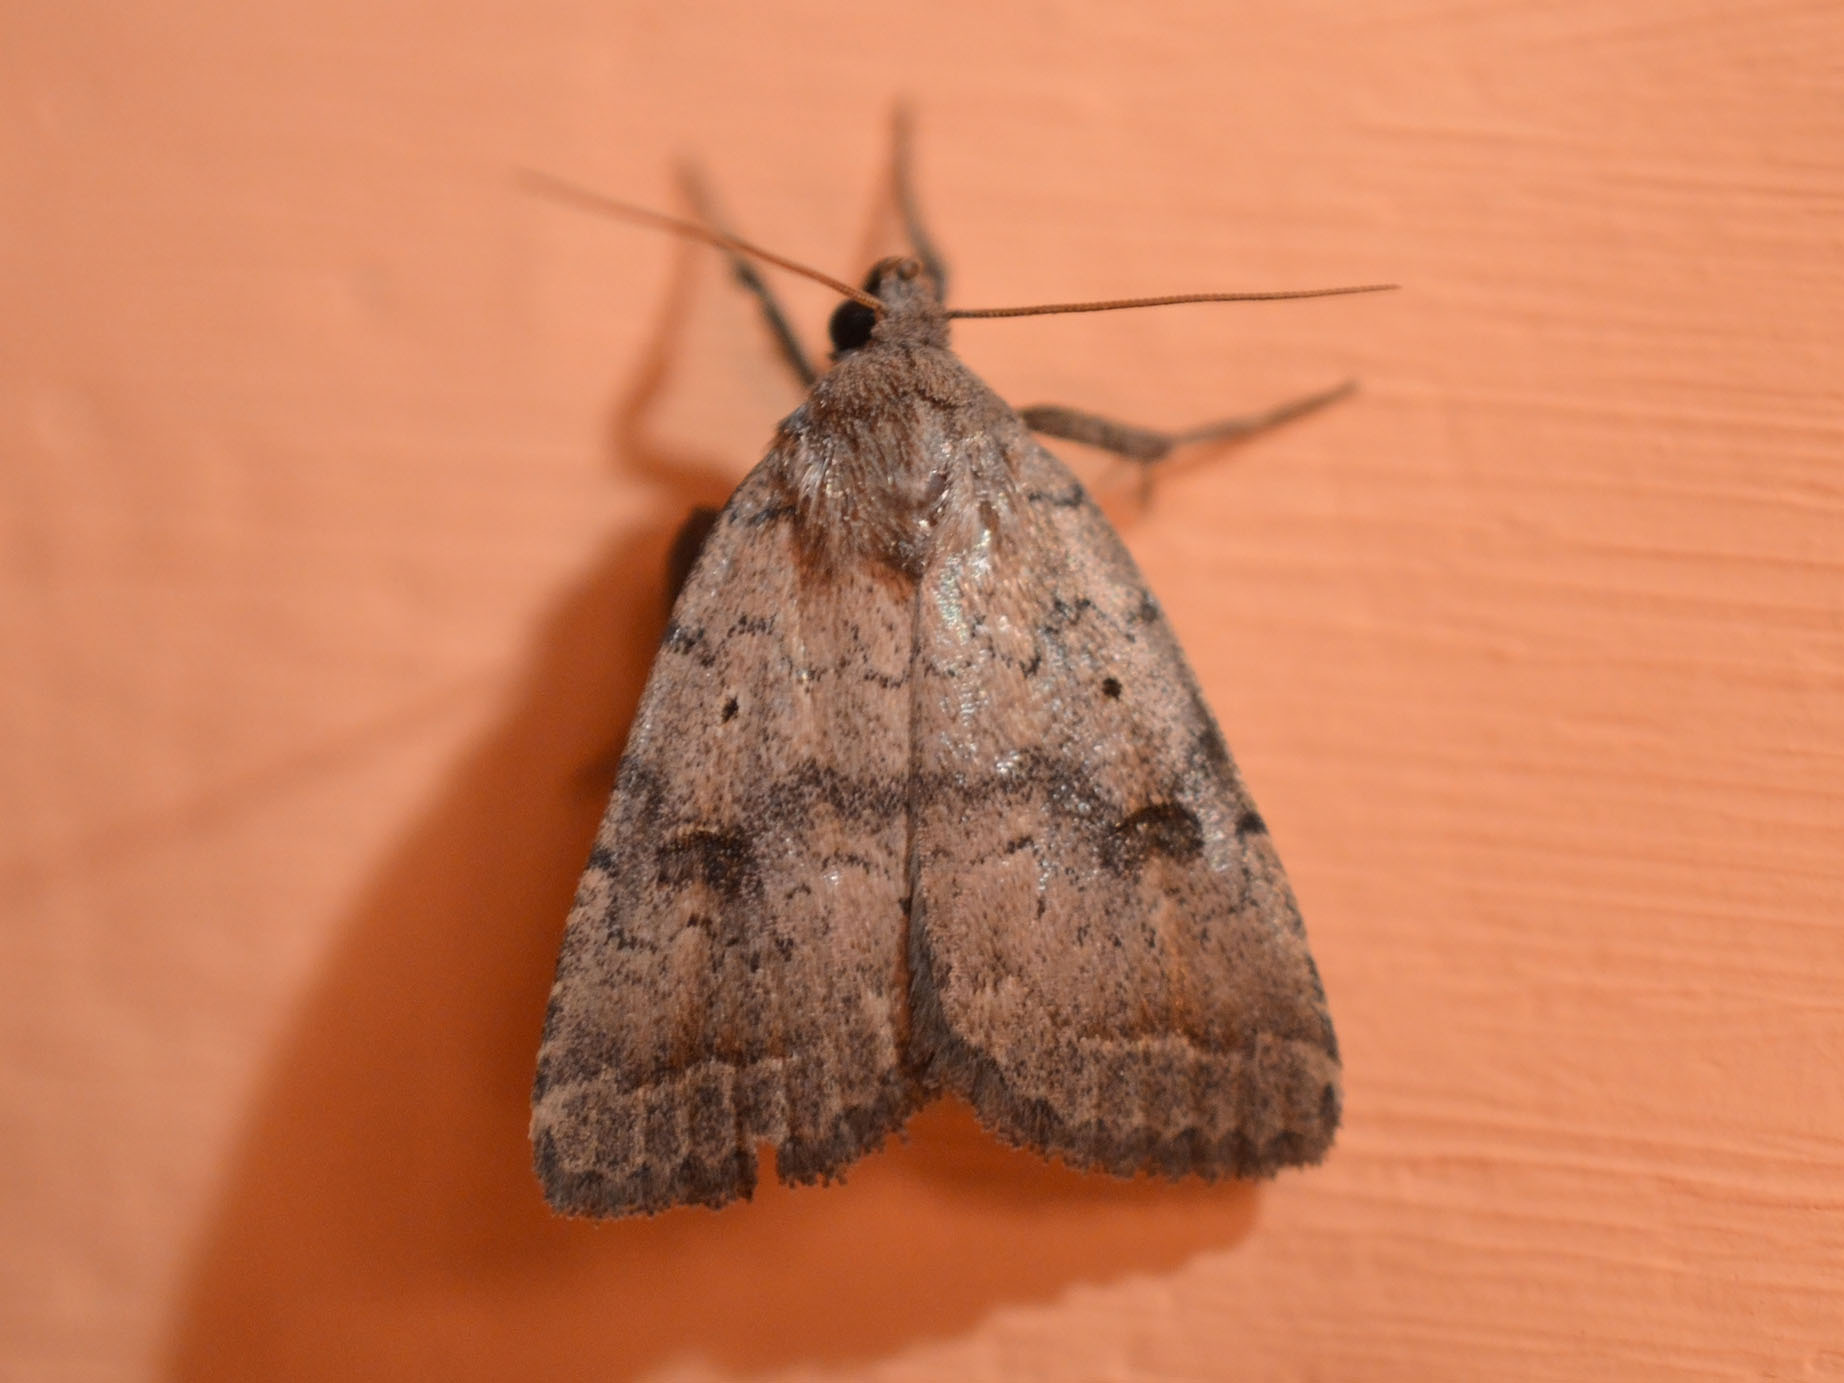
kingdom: Animalia
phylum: Arthropoda
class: Insecta
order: Lepidoptera
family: Noctuidae
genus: Athetis
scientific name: Athetis furvula
